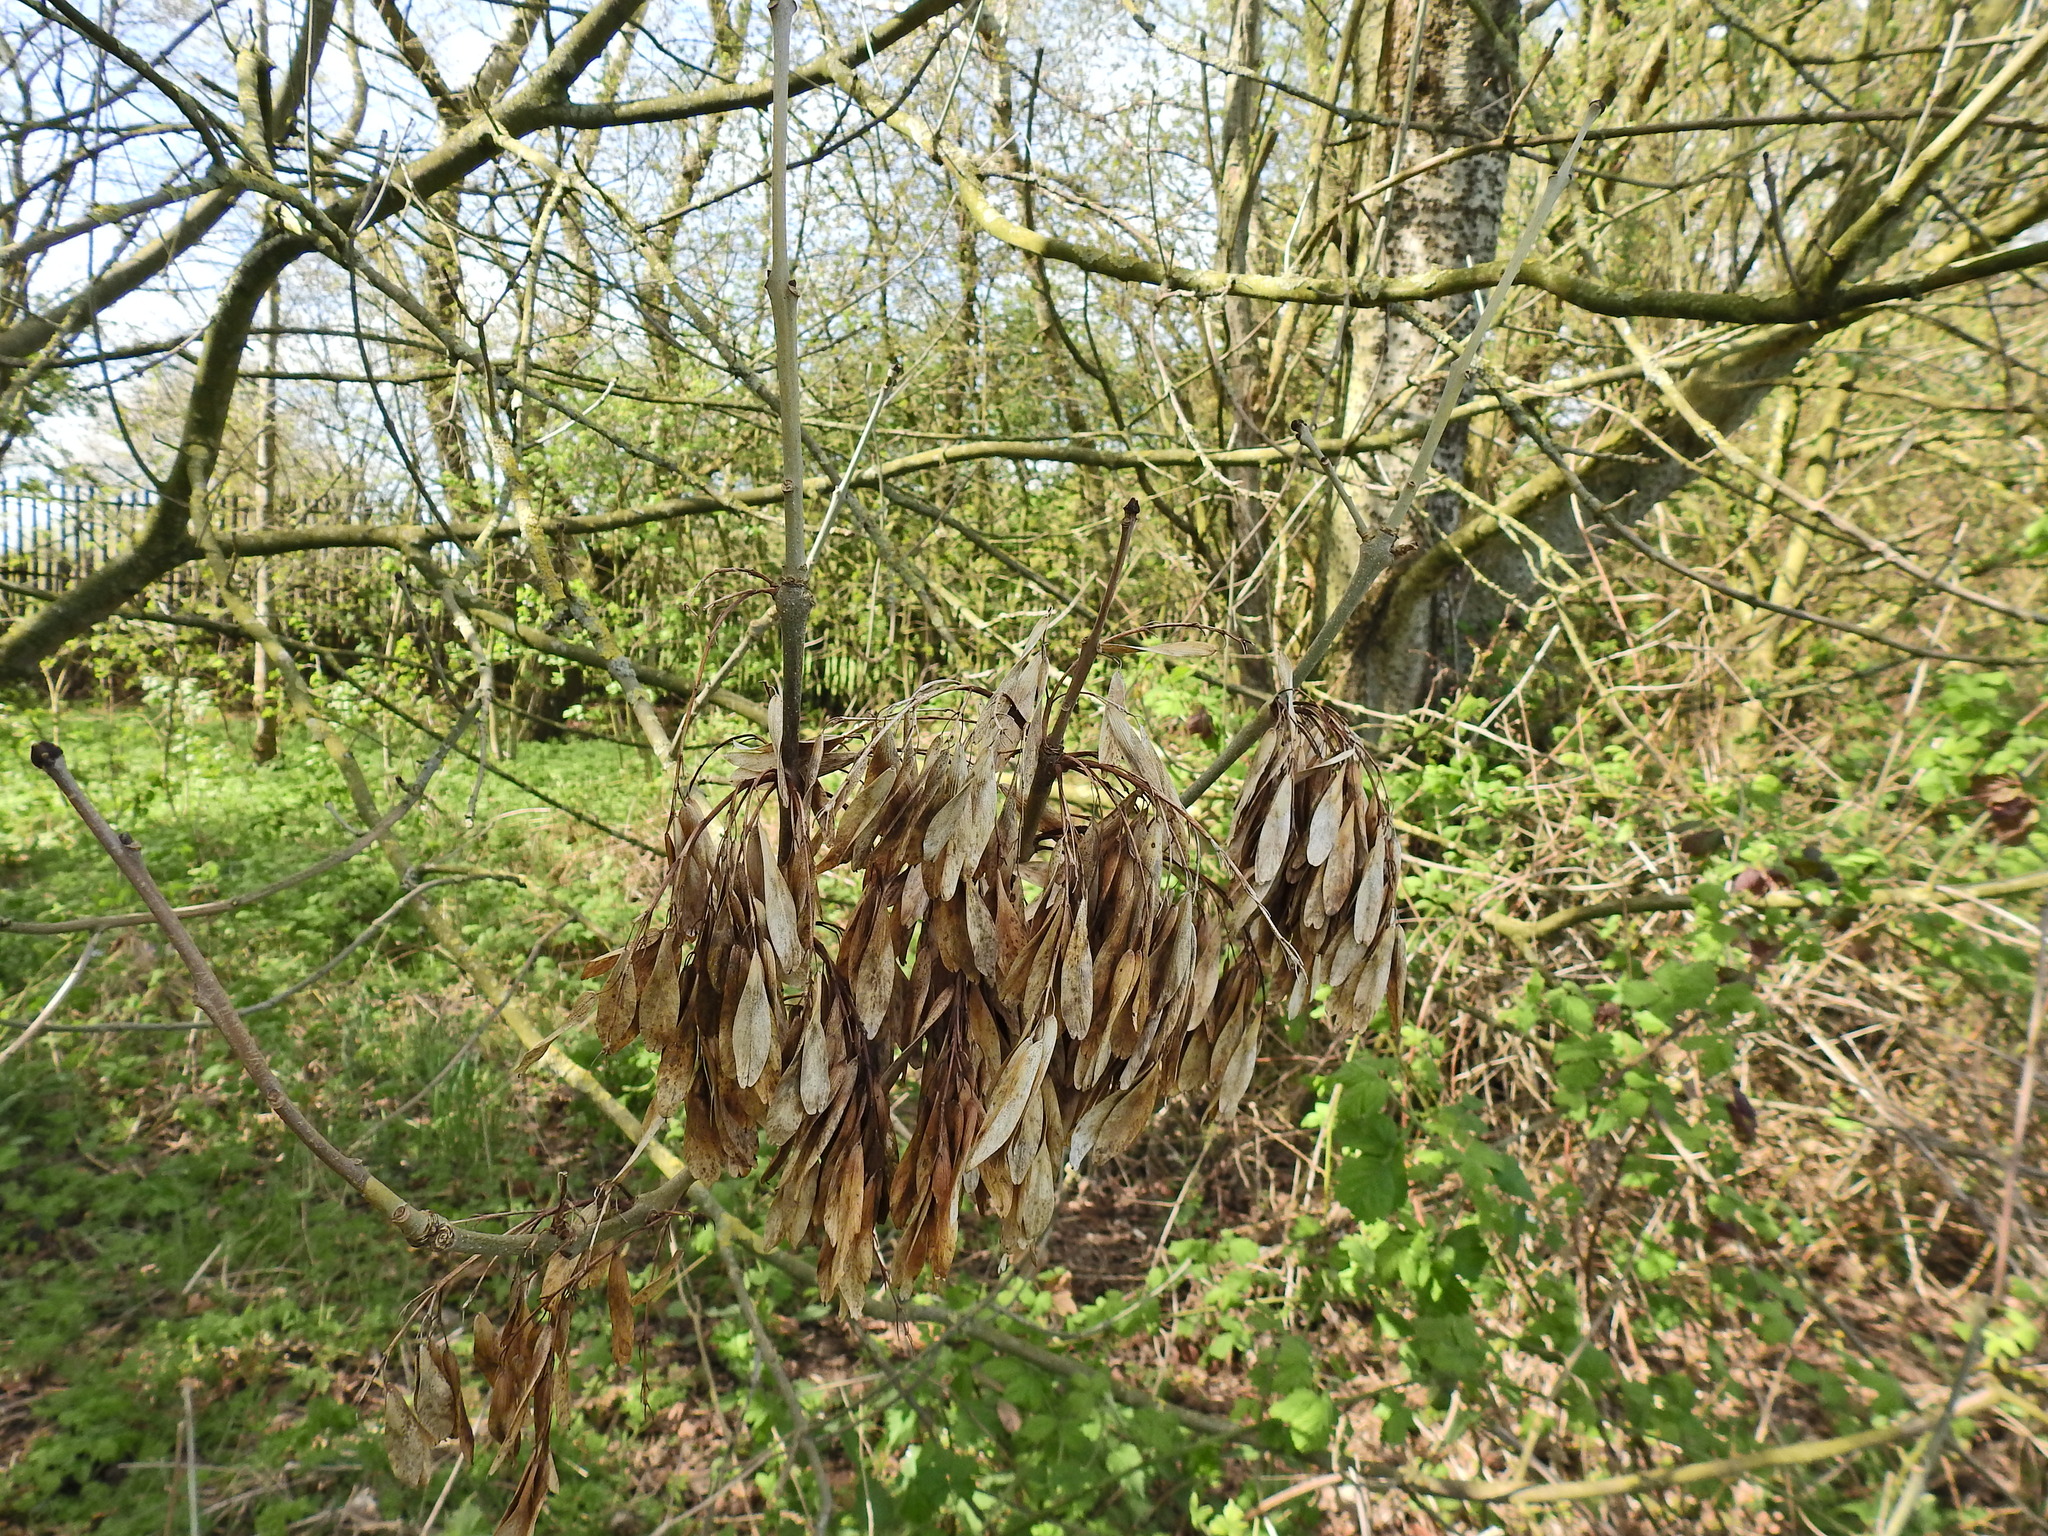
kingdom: Plantae
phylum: Tracheophyta
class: Magnoliopsida
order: Lamiales
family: Oleaceae
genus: Fraxinus
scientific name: Fraxinus excelsior
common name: European ash
